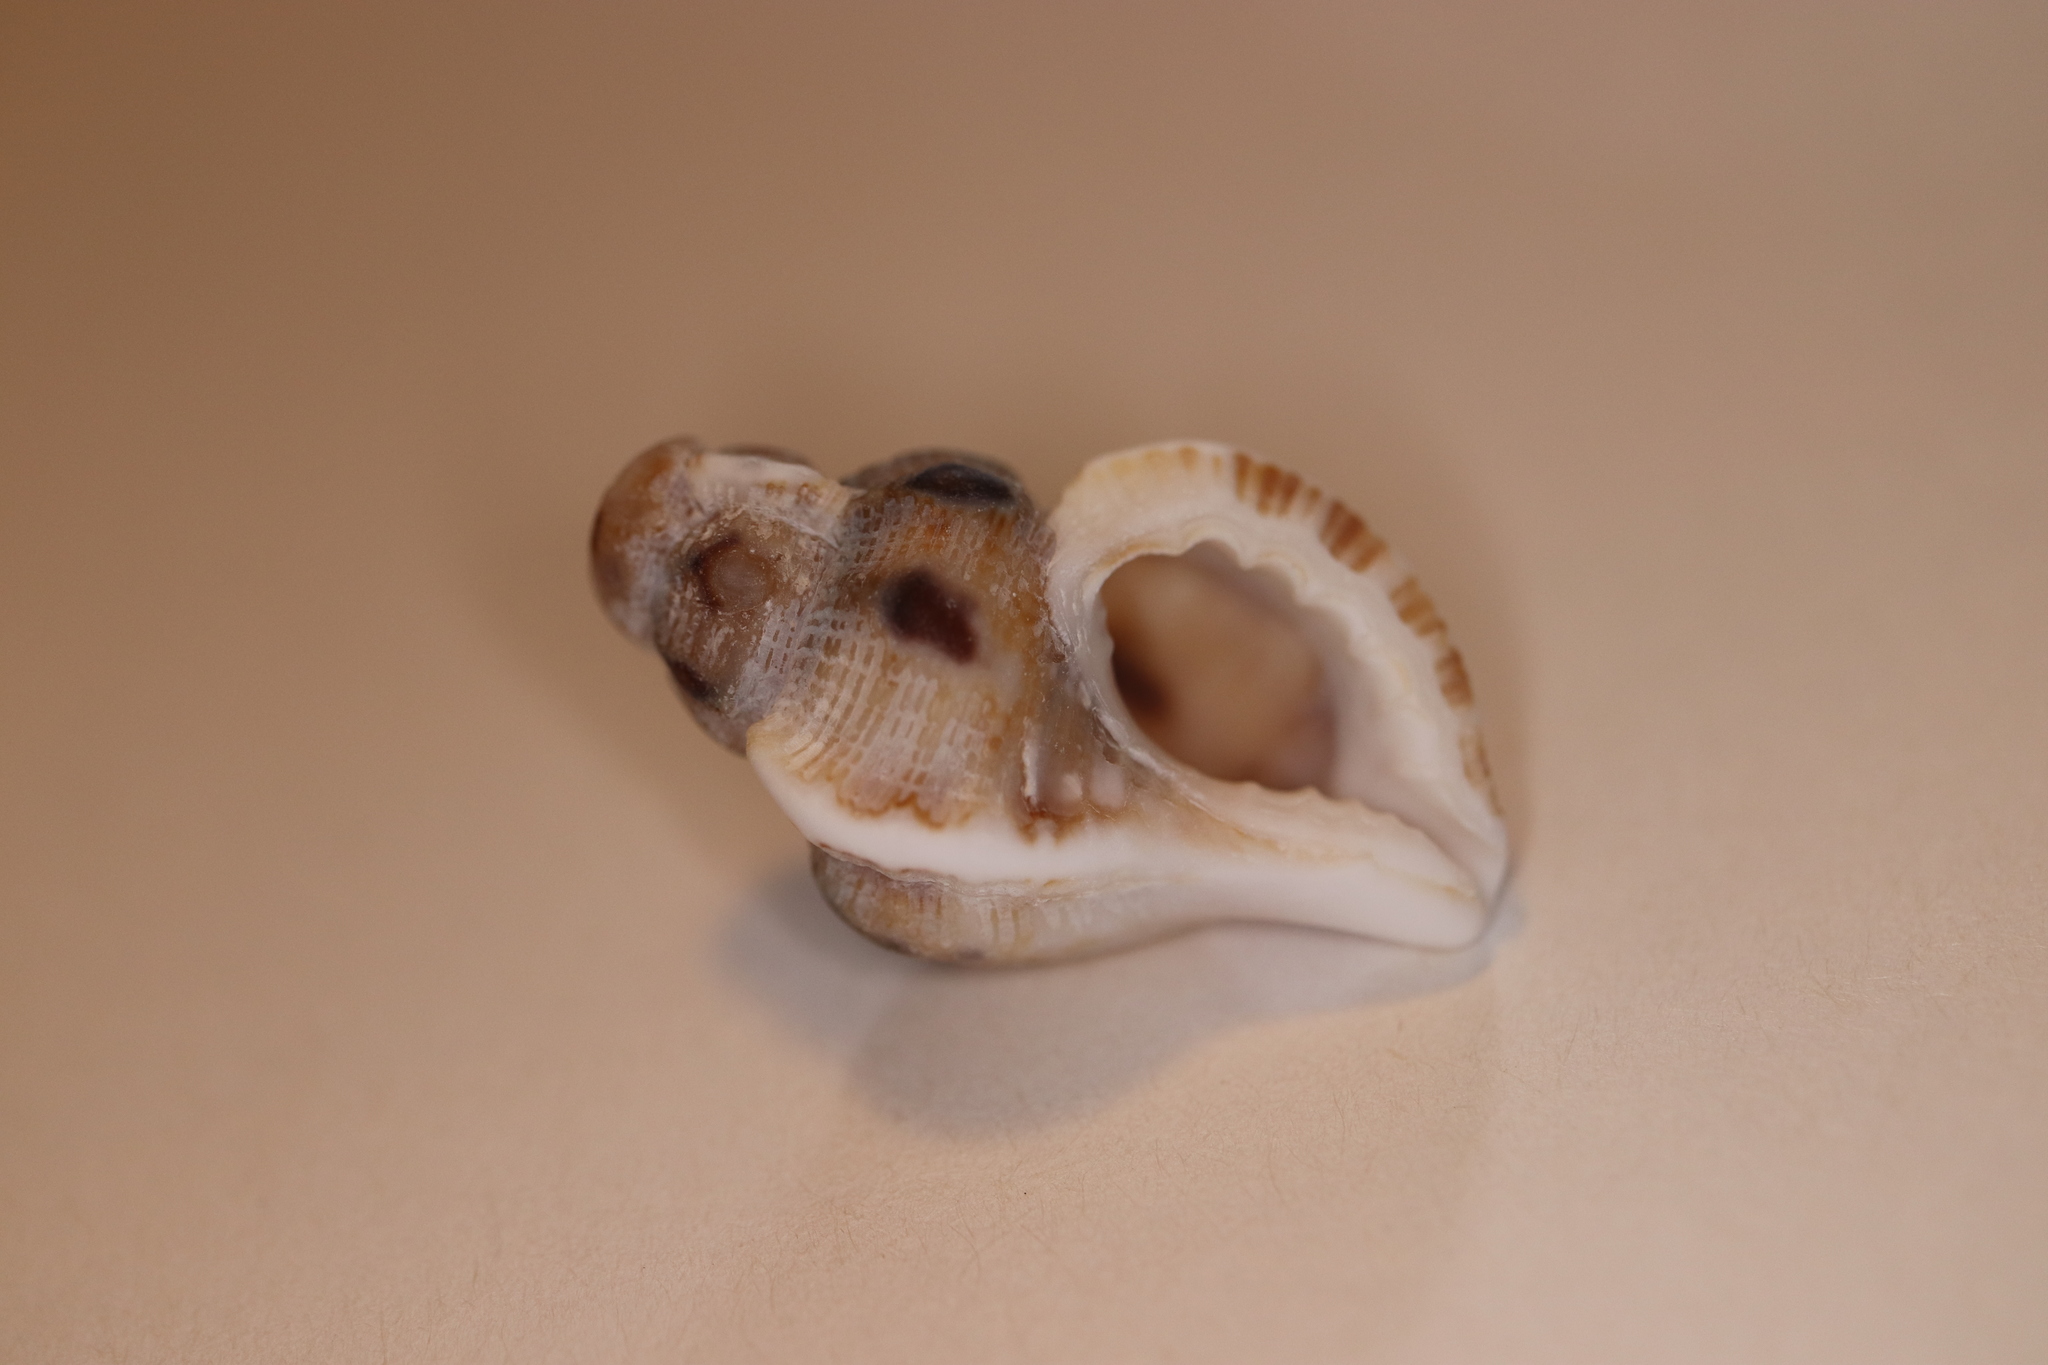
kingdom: Animalia
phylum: Mollusca
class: Gastropoda
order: Littorinimorpha
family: Cymatiidae
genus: Turritriton
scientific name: Turritriton tenuiliratus
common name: Slender triton
